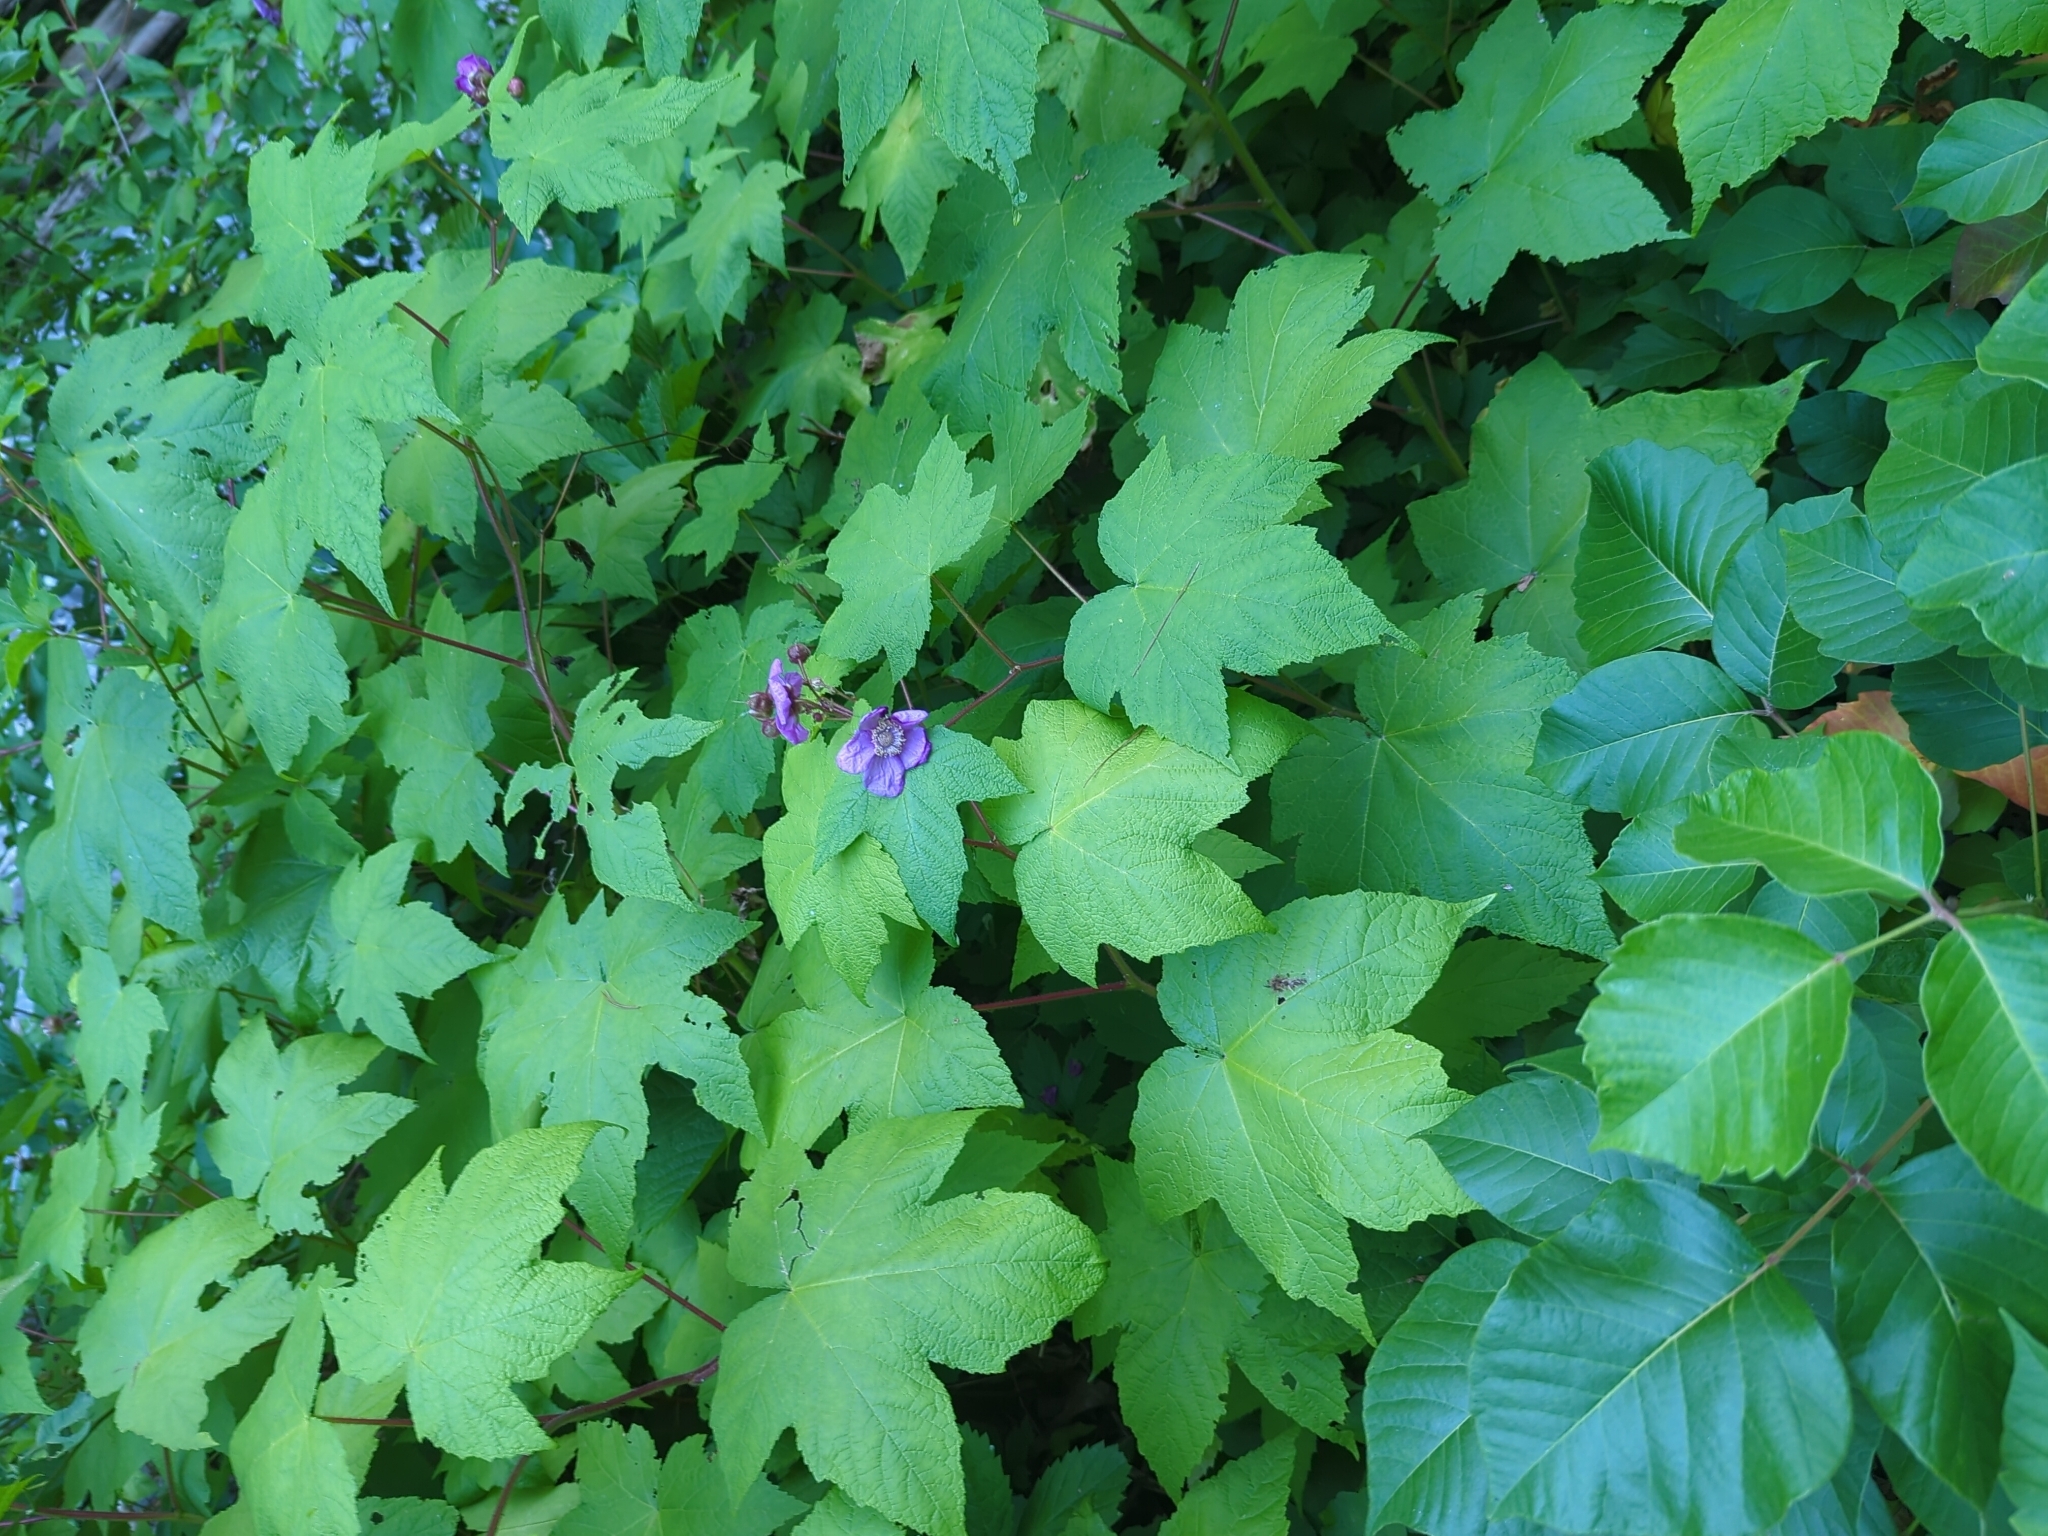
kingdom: Plantae
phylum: Tracheophyta
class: Magnoliopsida
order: Rosales
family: Rosaceae
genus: Rubus
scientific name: Rubus odoratus
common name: Purple-flowered raspberry
